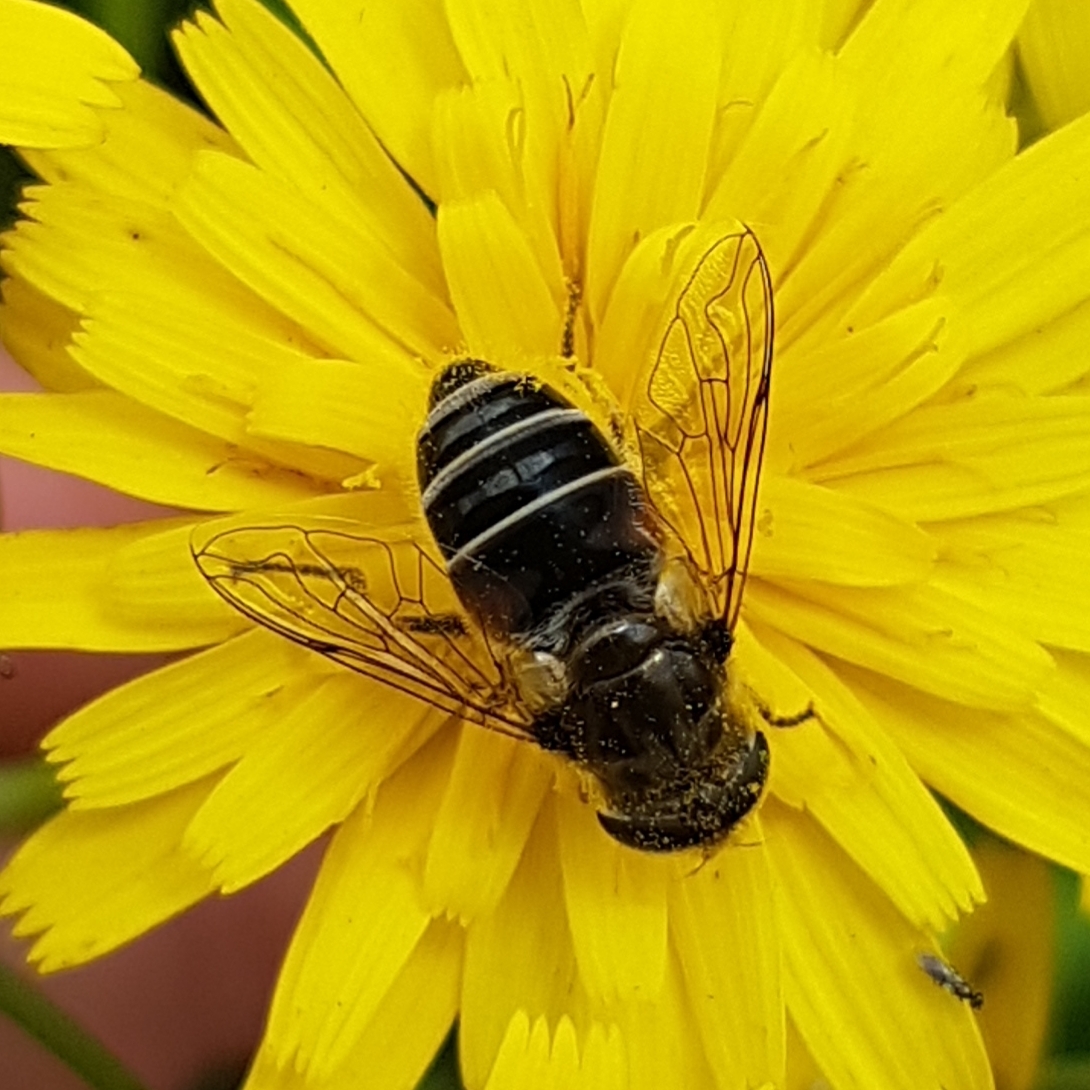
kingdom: Animalia
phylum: Arthropoda
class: Insecta
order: Diptera
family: Syrphidae
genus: Eristalis
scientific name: Eristalis arbustorum
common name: Hover fly
